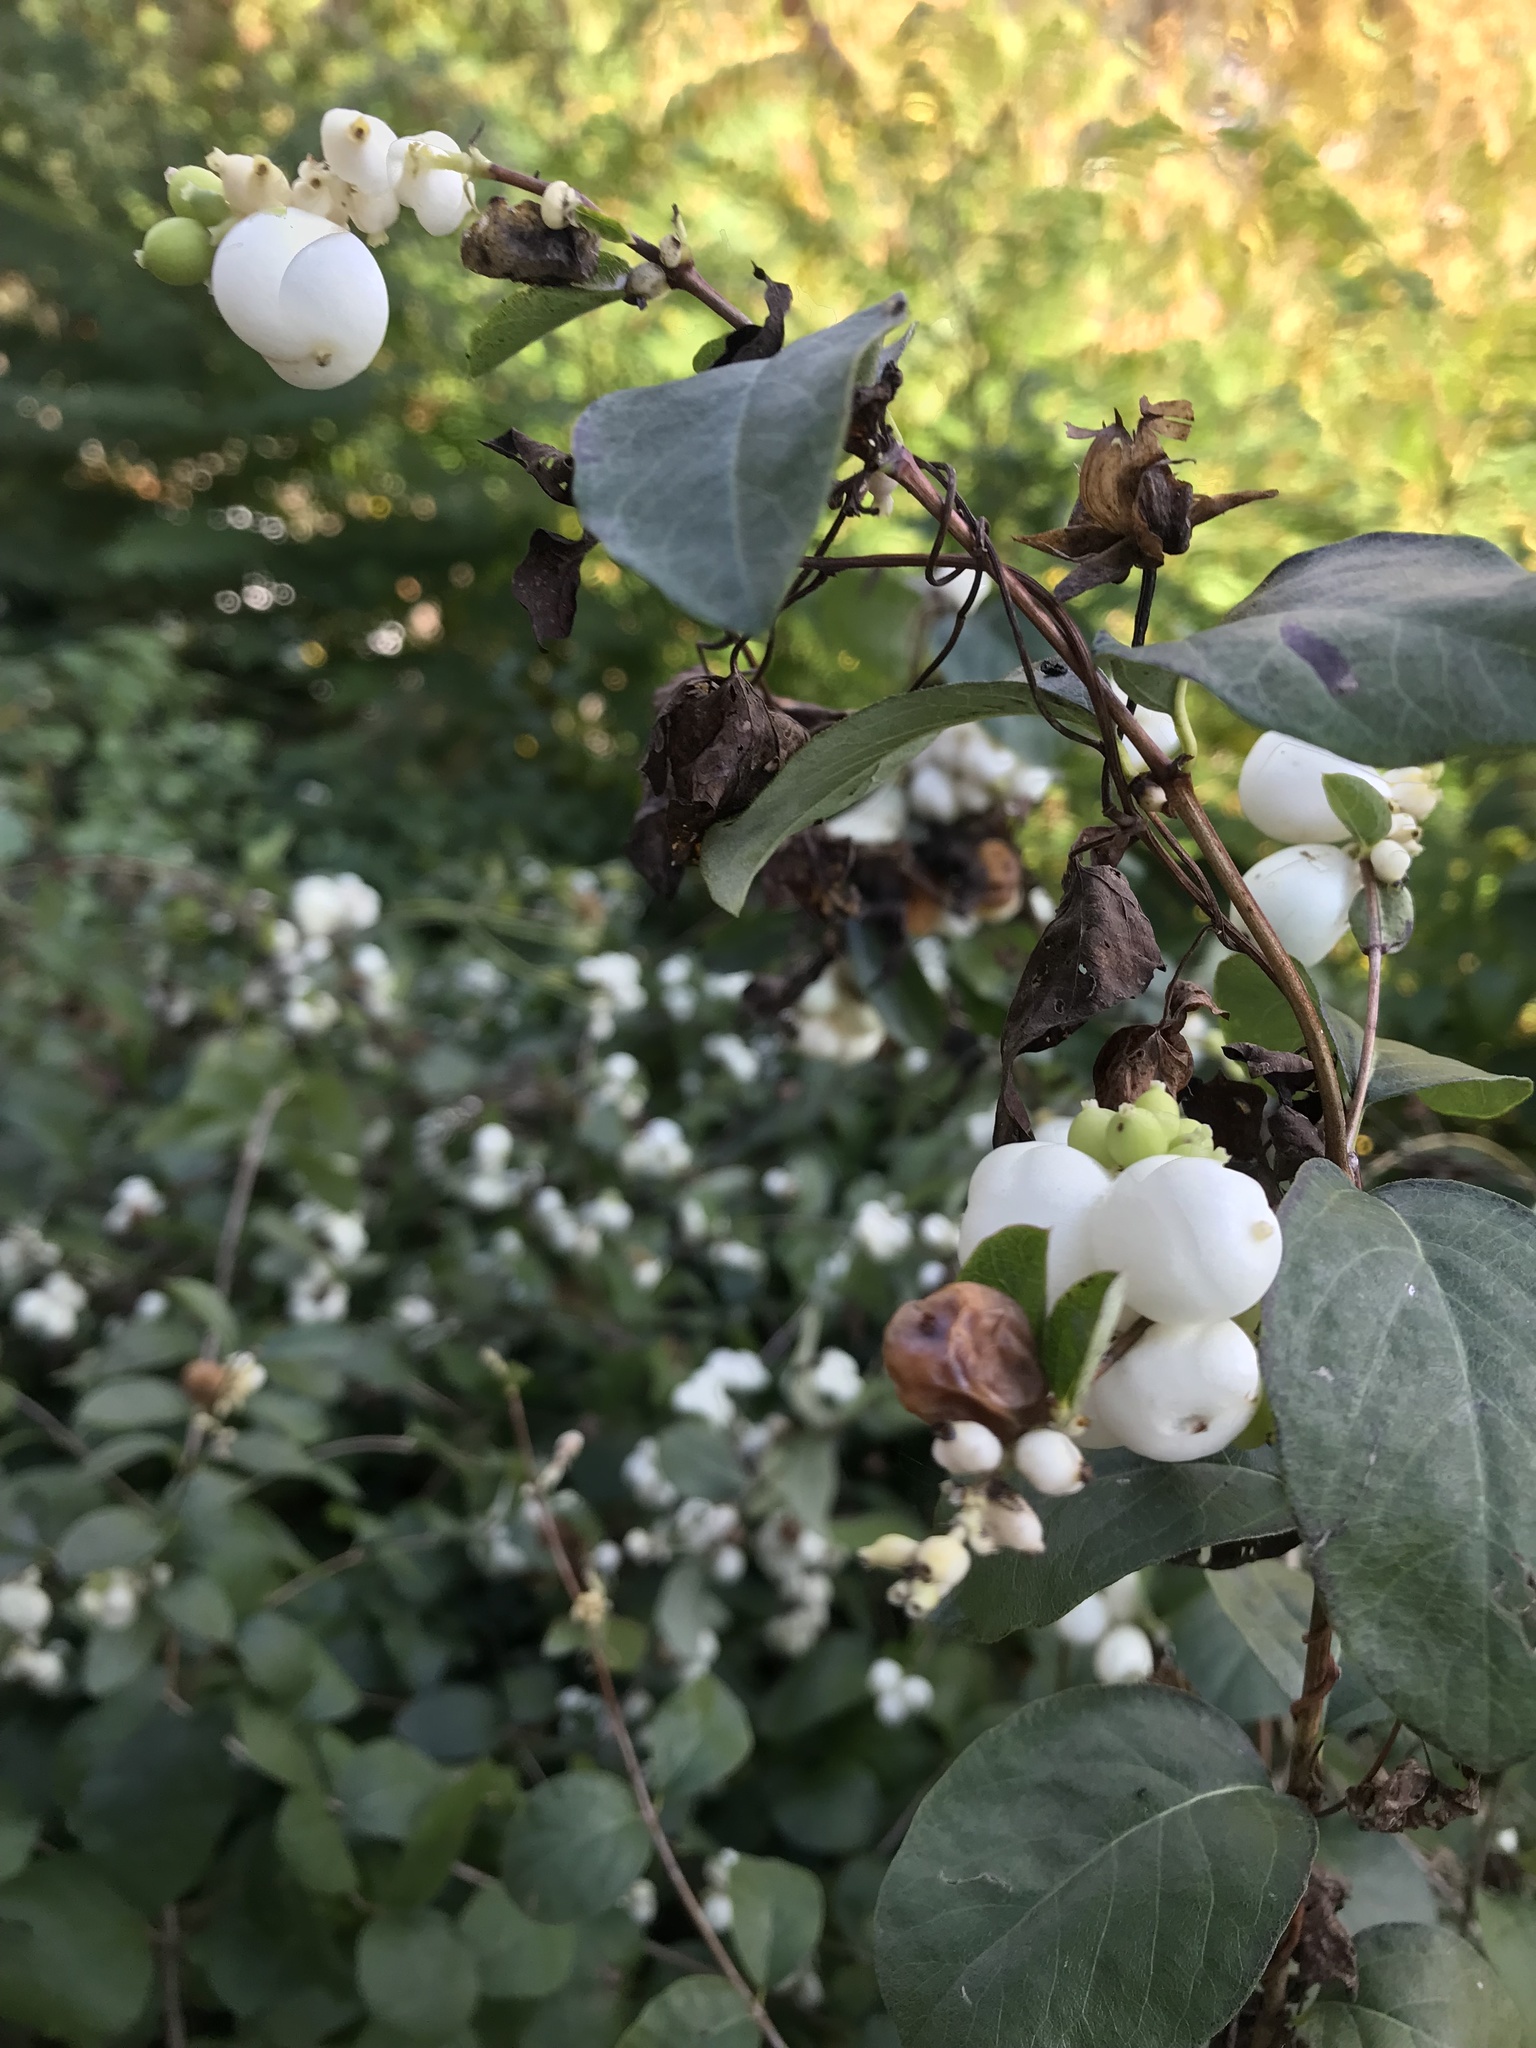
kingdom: Plantae
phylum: Tracheophyta
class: Magnoliopsida
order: Dipsacales
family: Caprifoliaceae
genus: Symphoricarpos
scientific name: Symphoricarpos albus
